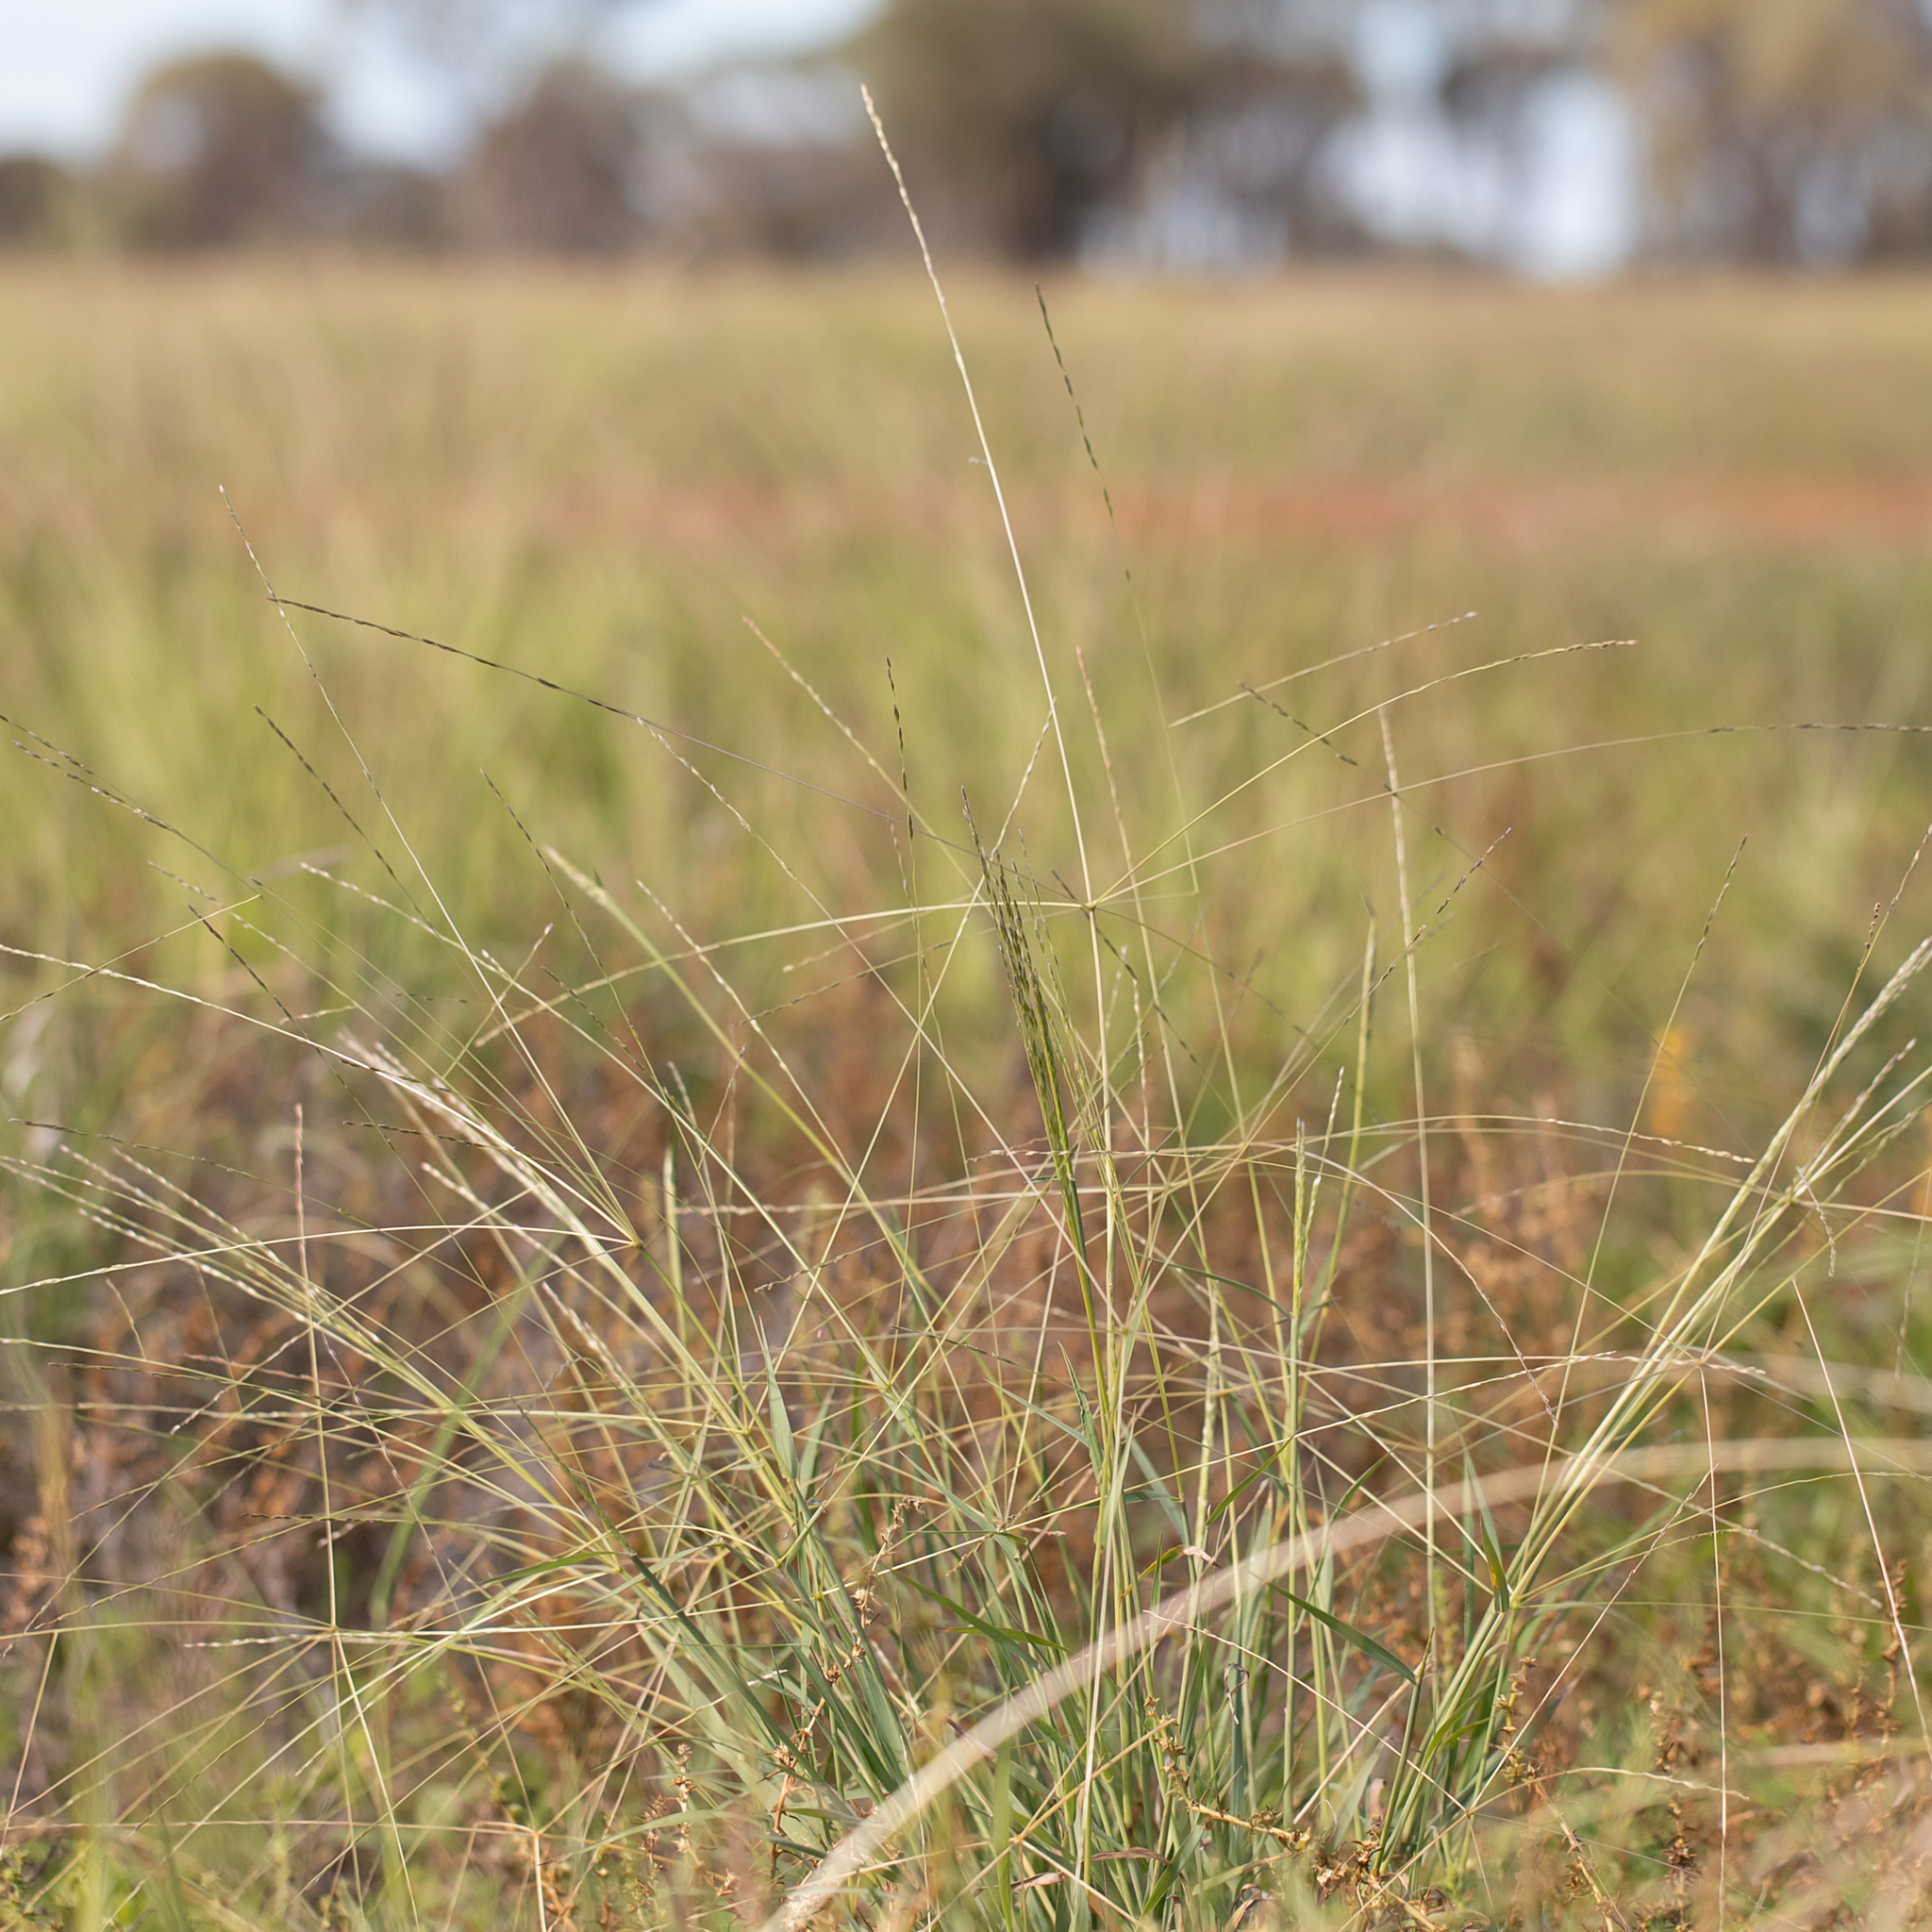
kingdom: Plantae
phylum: Tracheophyta
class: Liliopsida
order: Poales
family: Poaceae
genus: Panicum
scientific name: Panicum decompositum
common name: Australian millet
